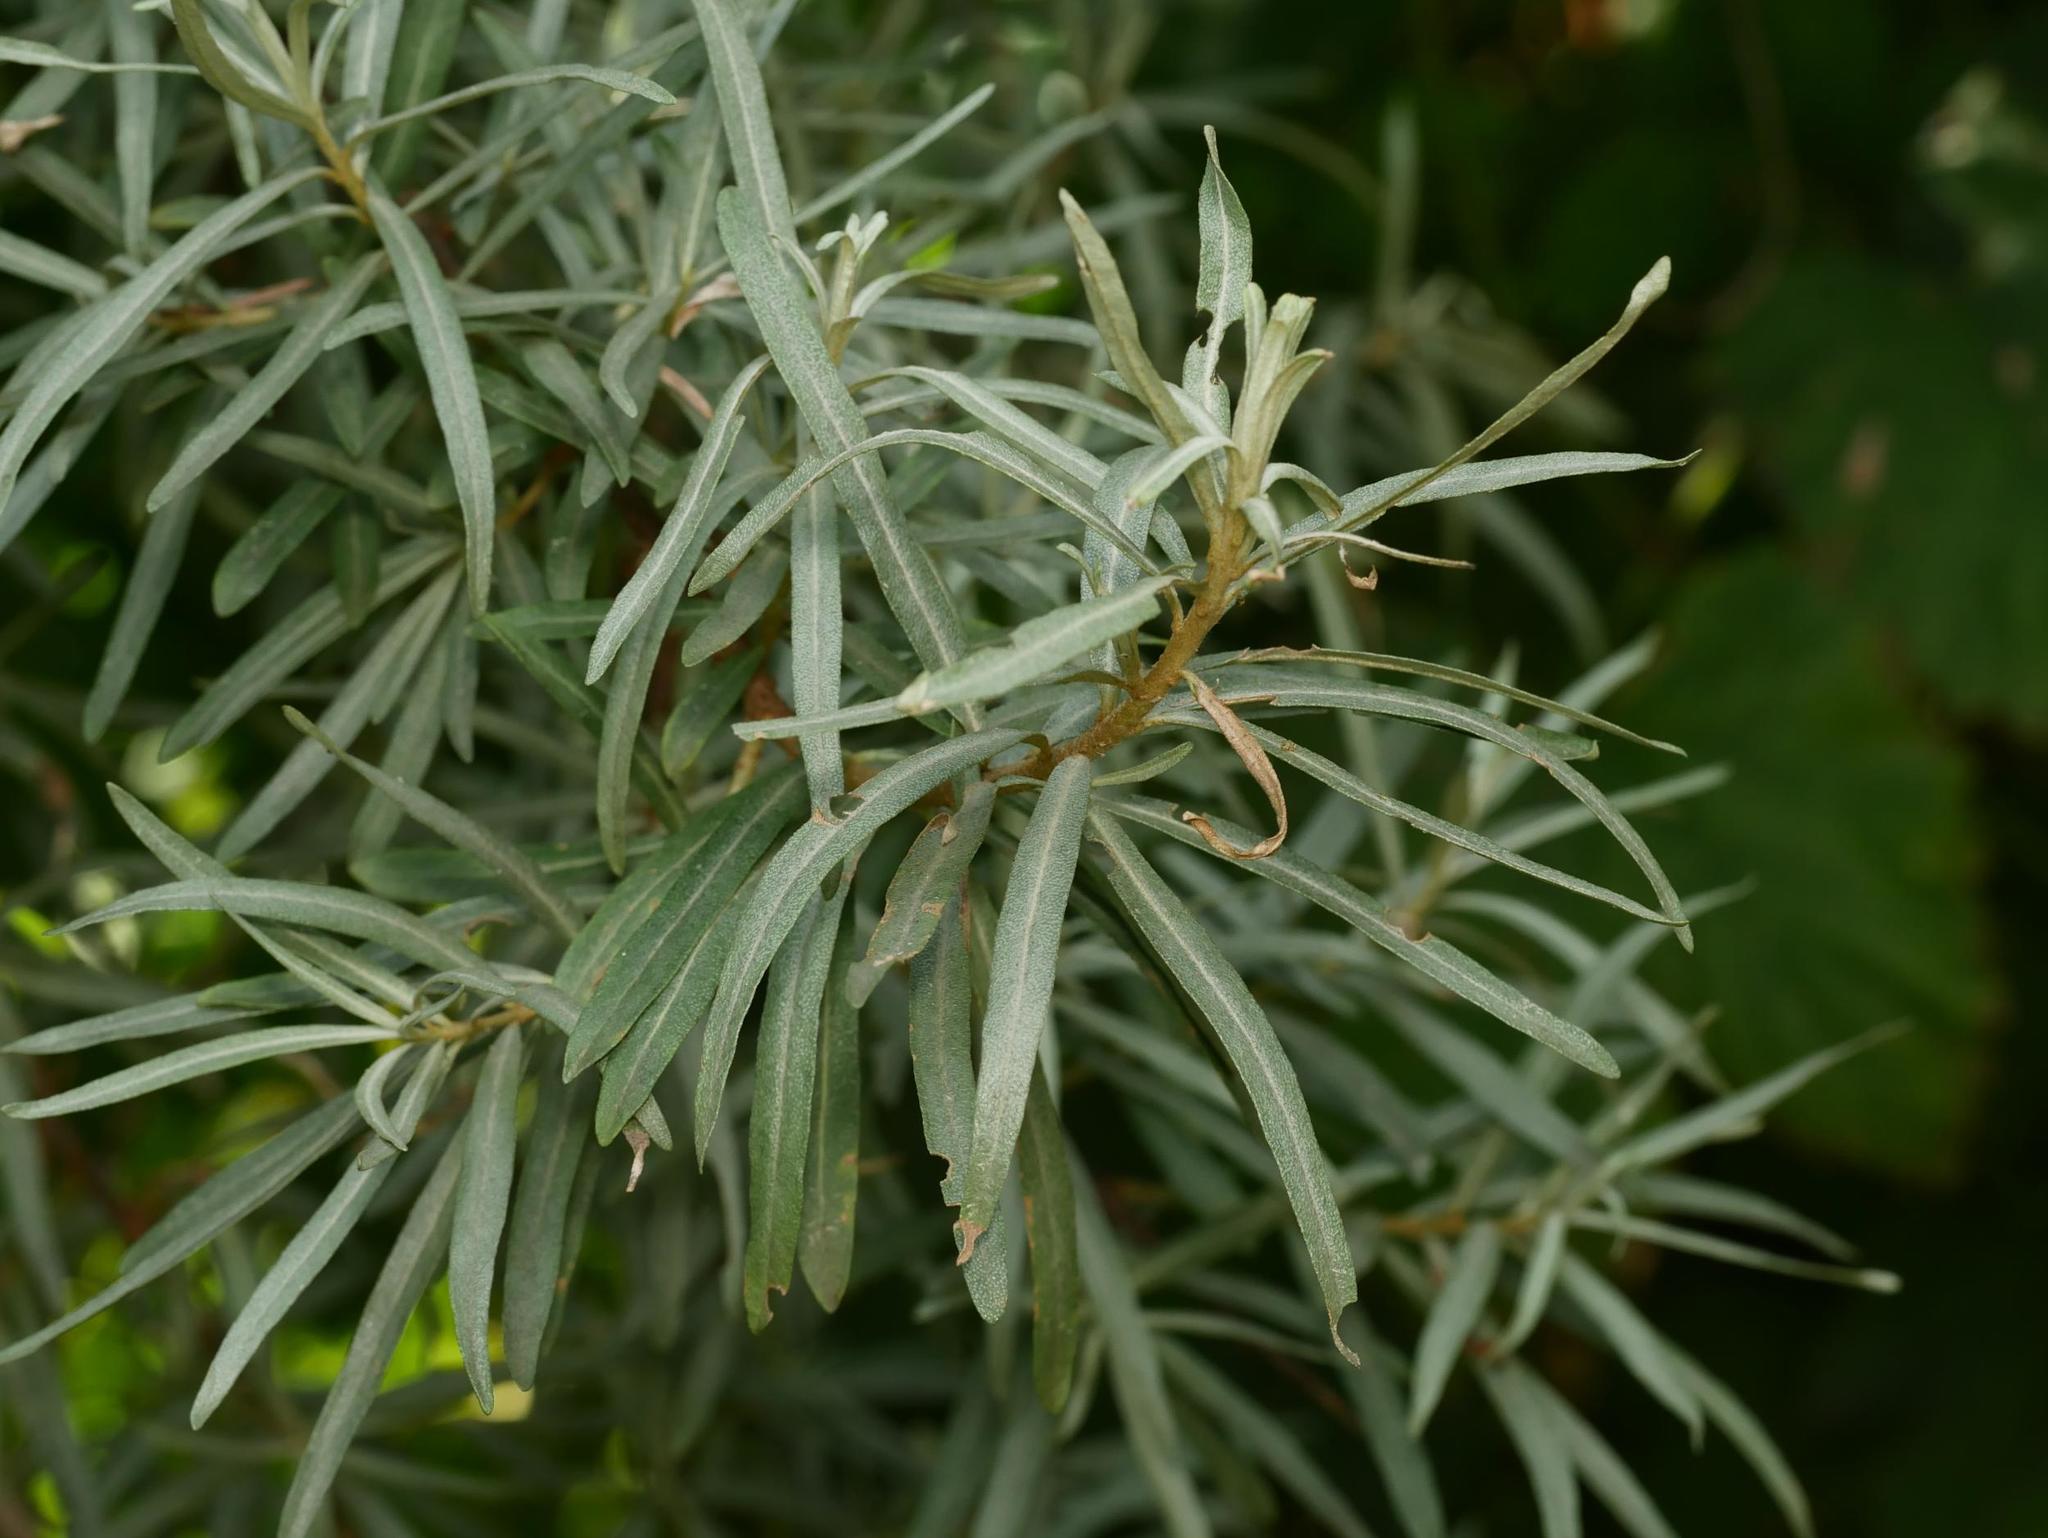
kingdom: Plantae
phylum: Tracheophyta
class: Magnoliopsida
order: Rosales
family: Elaeagnaceae
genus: Hippophae
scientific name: Hippophae rhamnoides
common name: Sea-buckthorn
